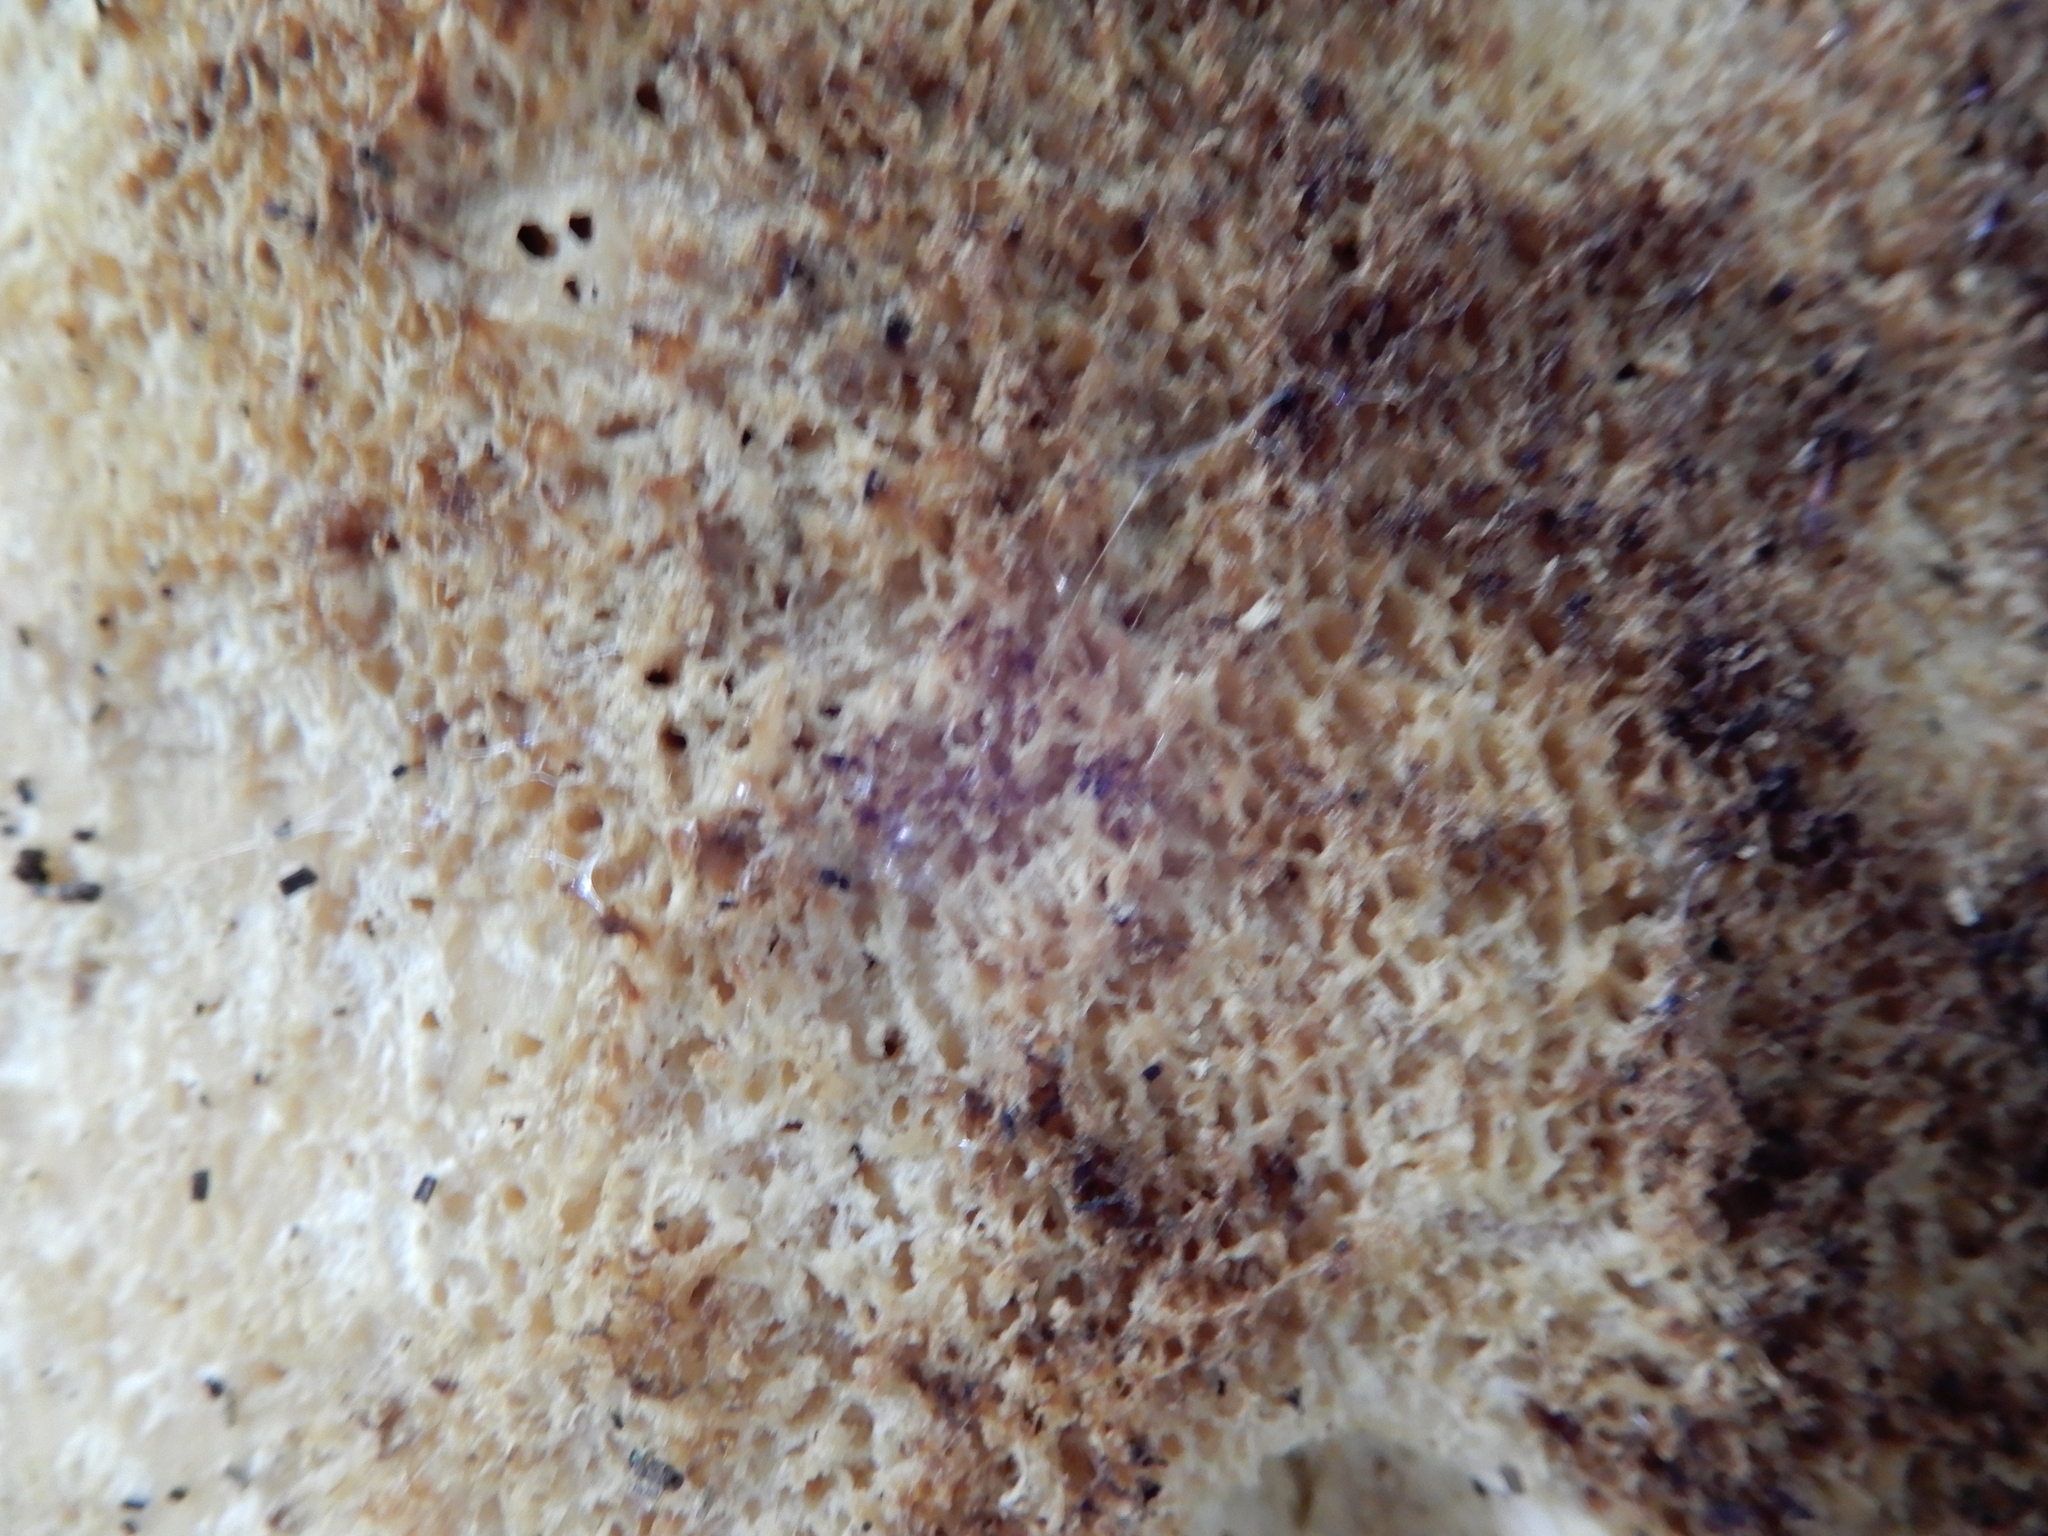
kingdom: Fungi
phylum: Basidiomycota
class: Agaricomycetes
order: Polyporales
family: Polyporaceae
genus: Cerioporus
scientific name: Cerioporus squamosus
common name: Dryad's saddle
